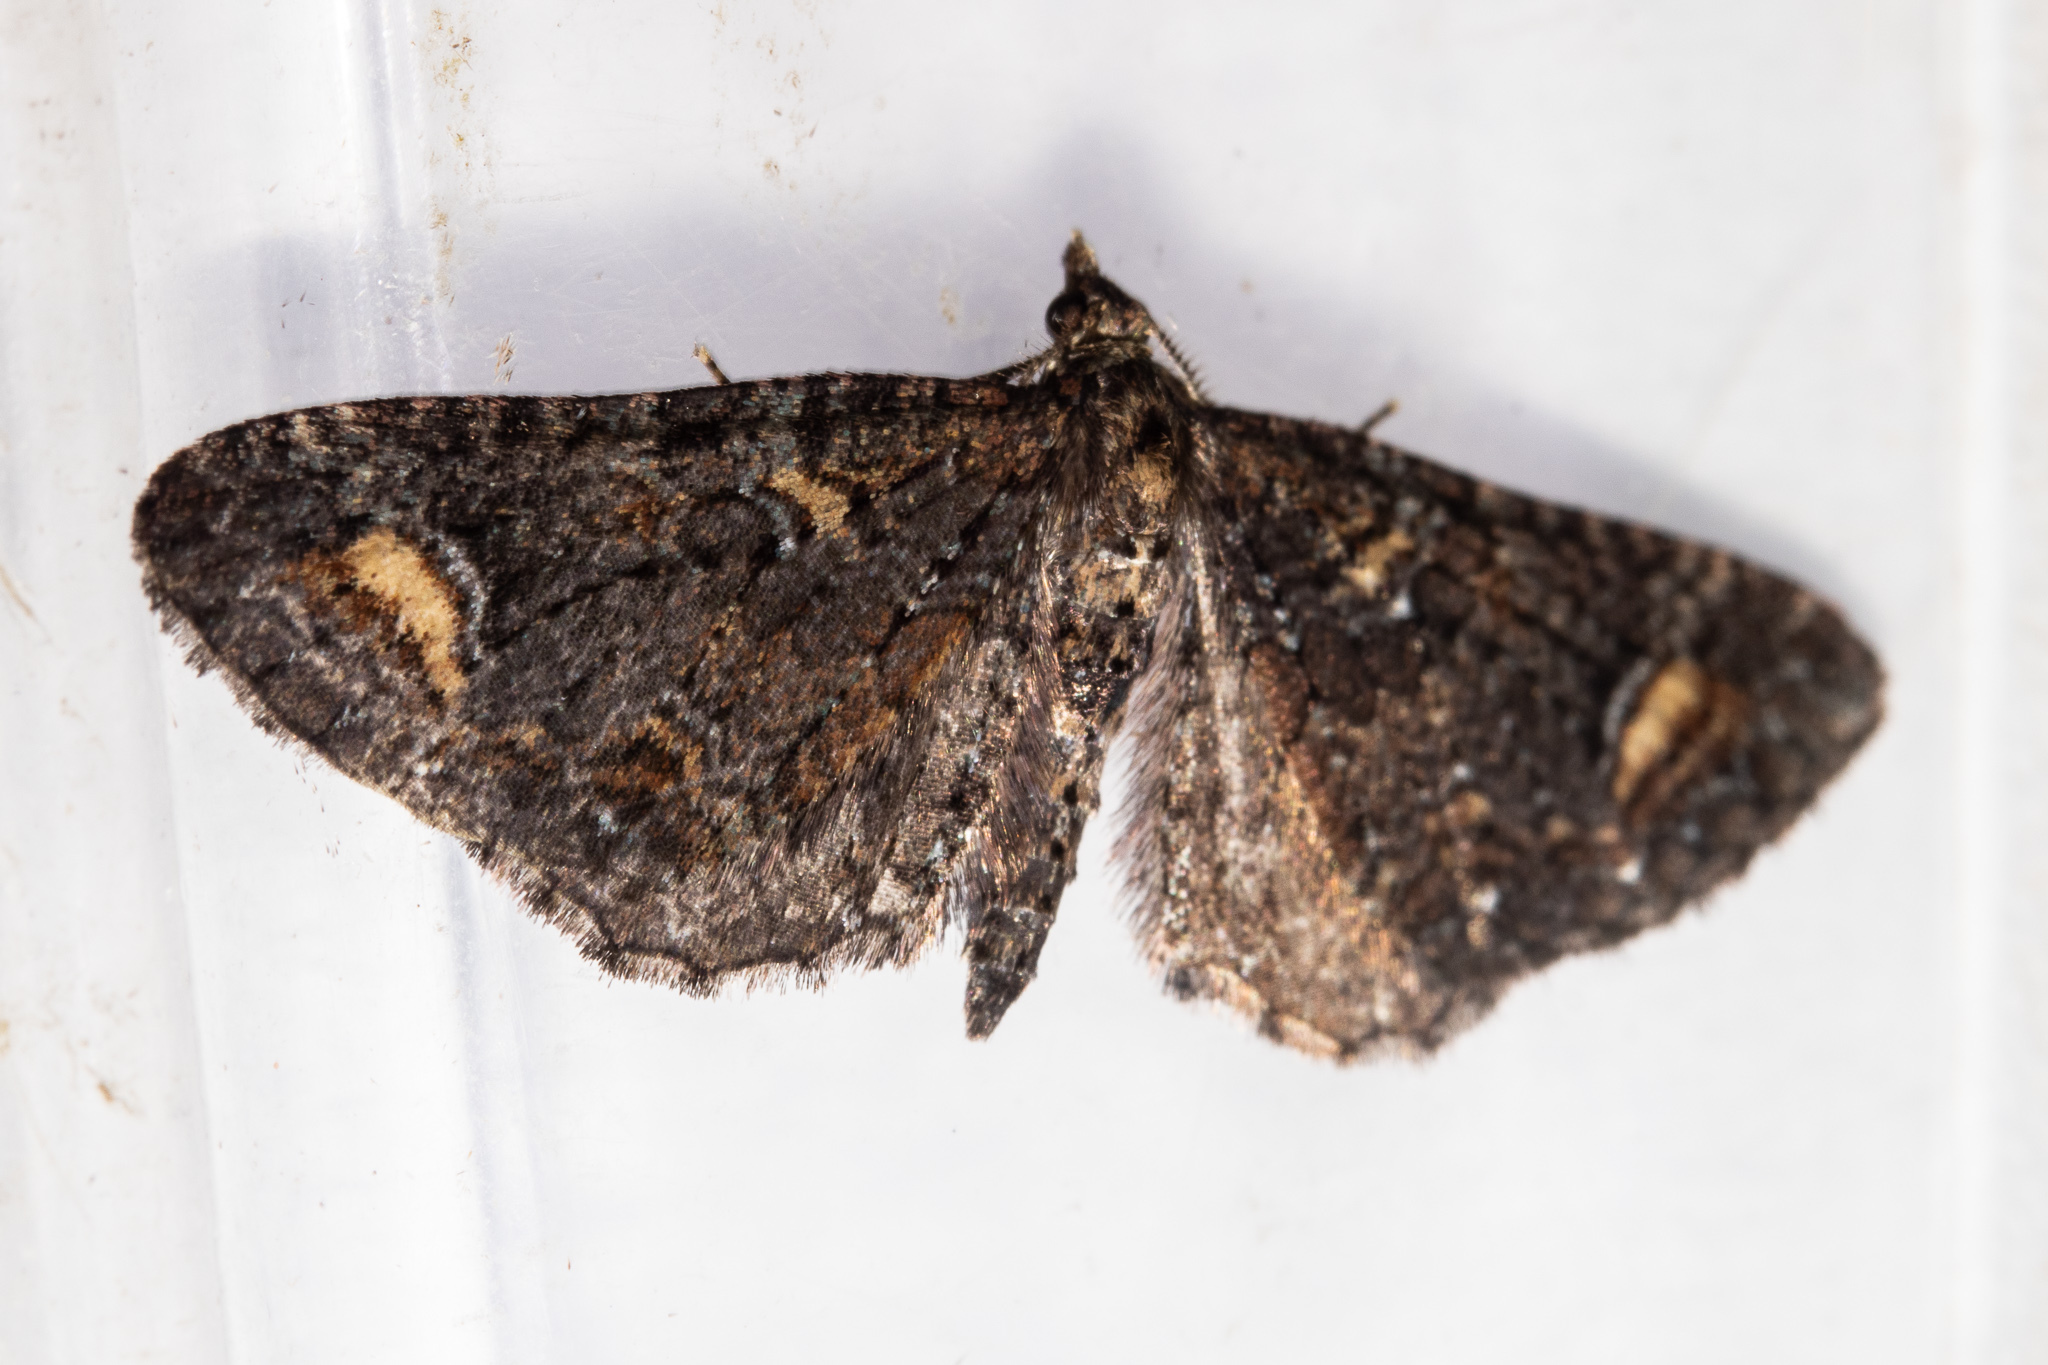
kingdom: Animalia
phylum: Arthropoda
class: Insecta
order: Lepidoptera
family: Geometridae
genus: Pasiphila
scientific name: Pasiphila rubella
